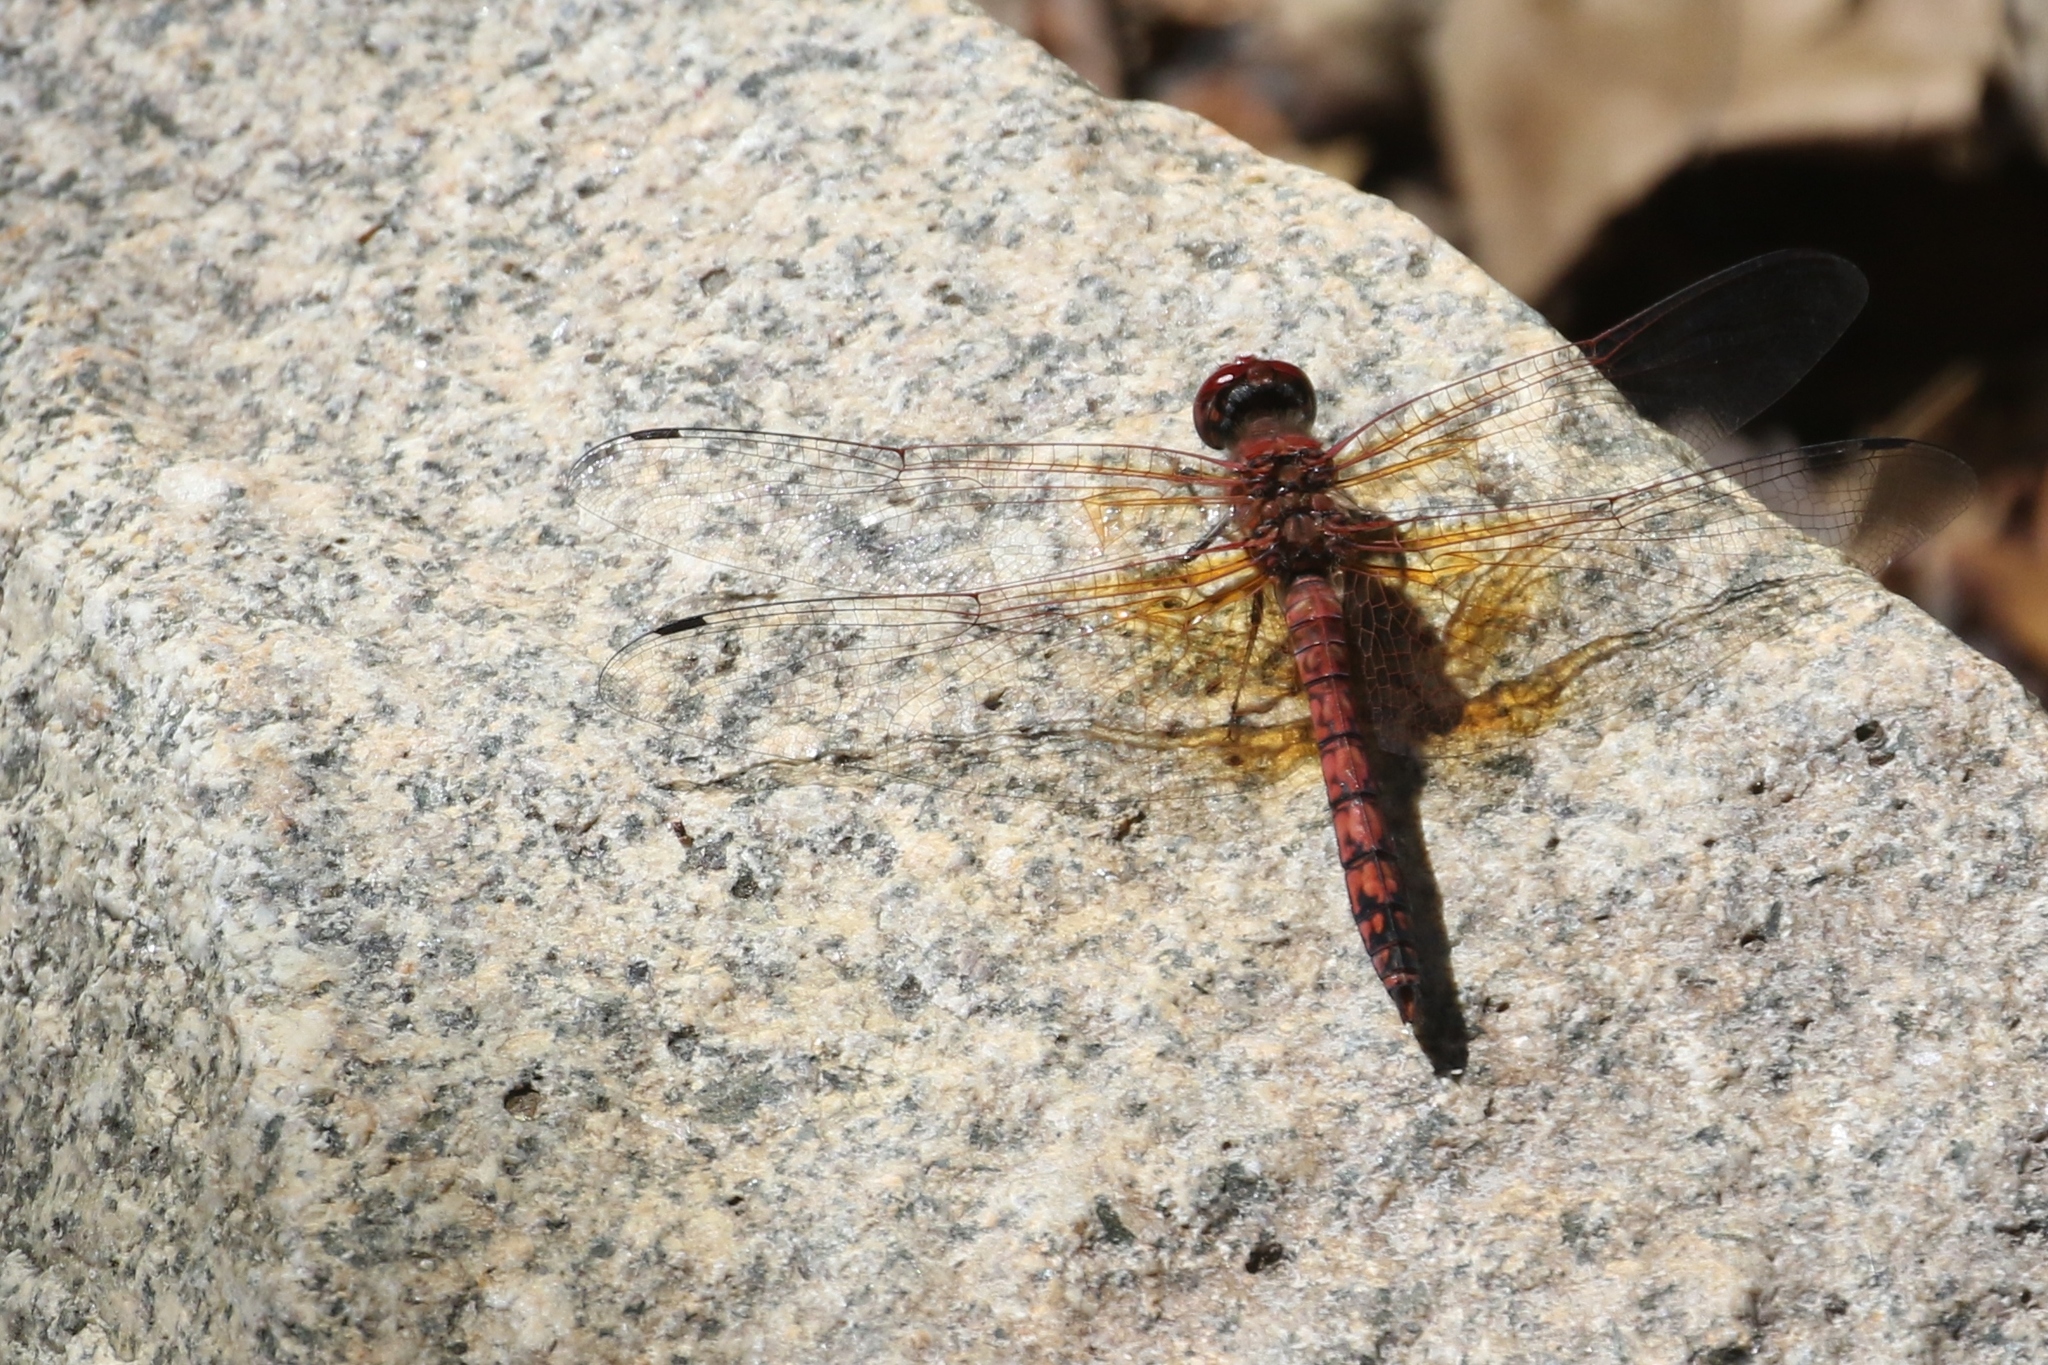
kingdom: Animalia
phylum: Arthropoda
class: Insecta
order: Odonata
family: Libellulidae
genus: Paltothemis
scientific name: Paltothemis lineatipes
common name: Red rock skimmer
